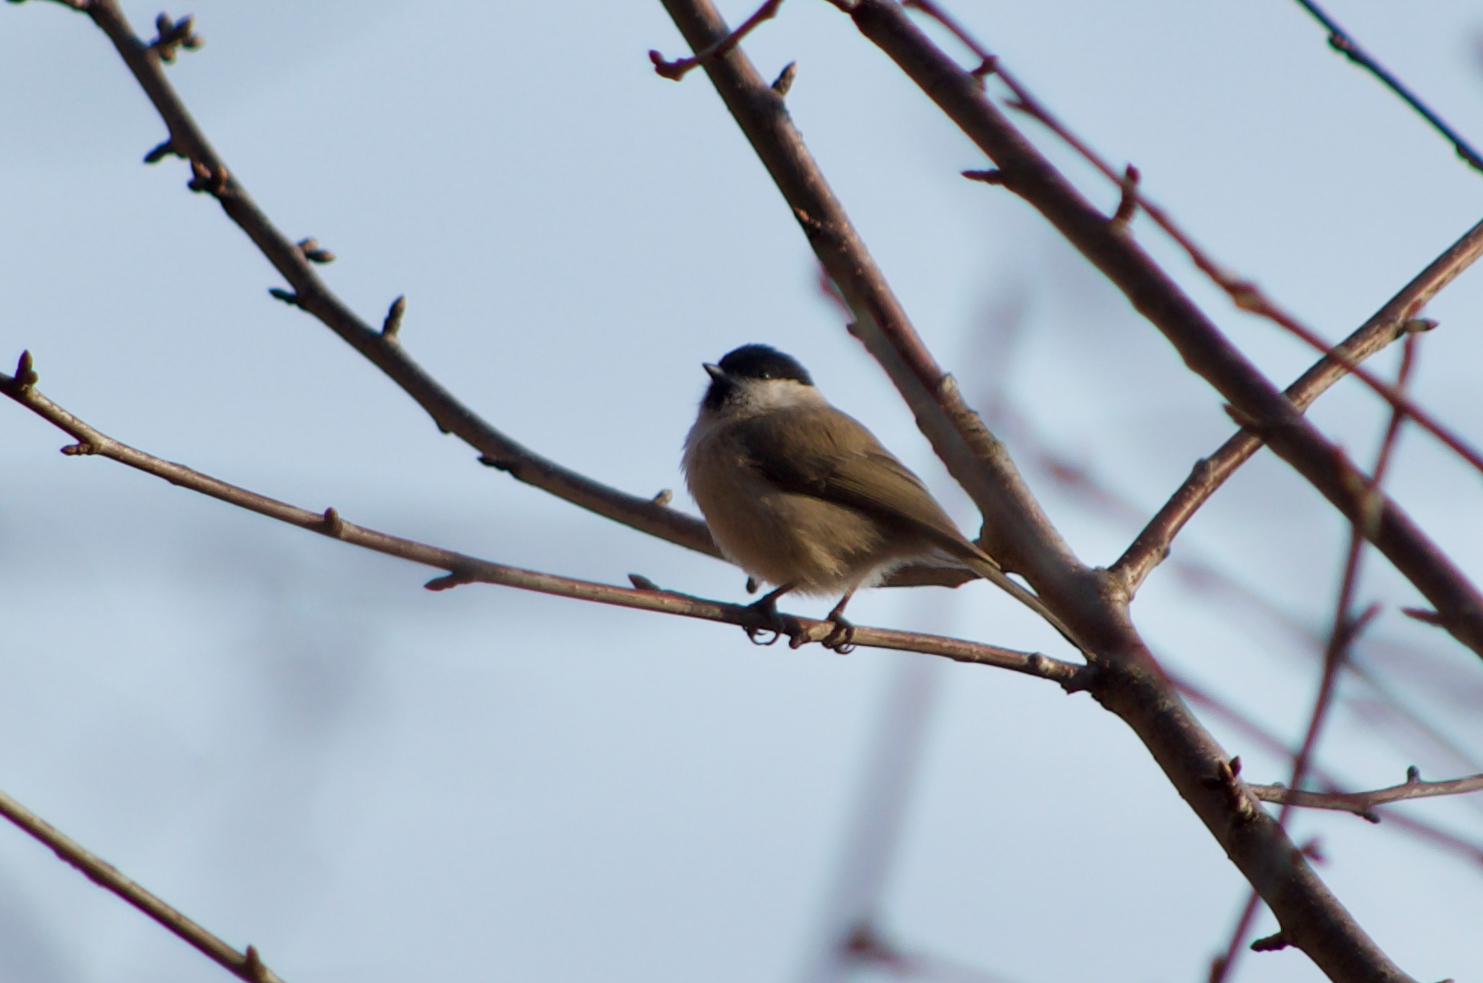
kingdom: Animalia
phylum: Chordata
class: Aves
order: Passeriformes
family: Paridae
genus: Poecile
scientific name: Poecile palustris
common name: Marsh tit
